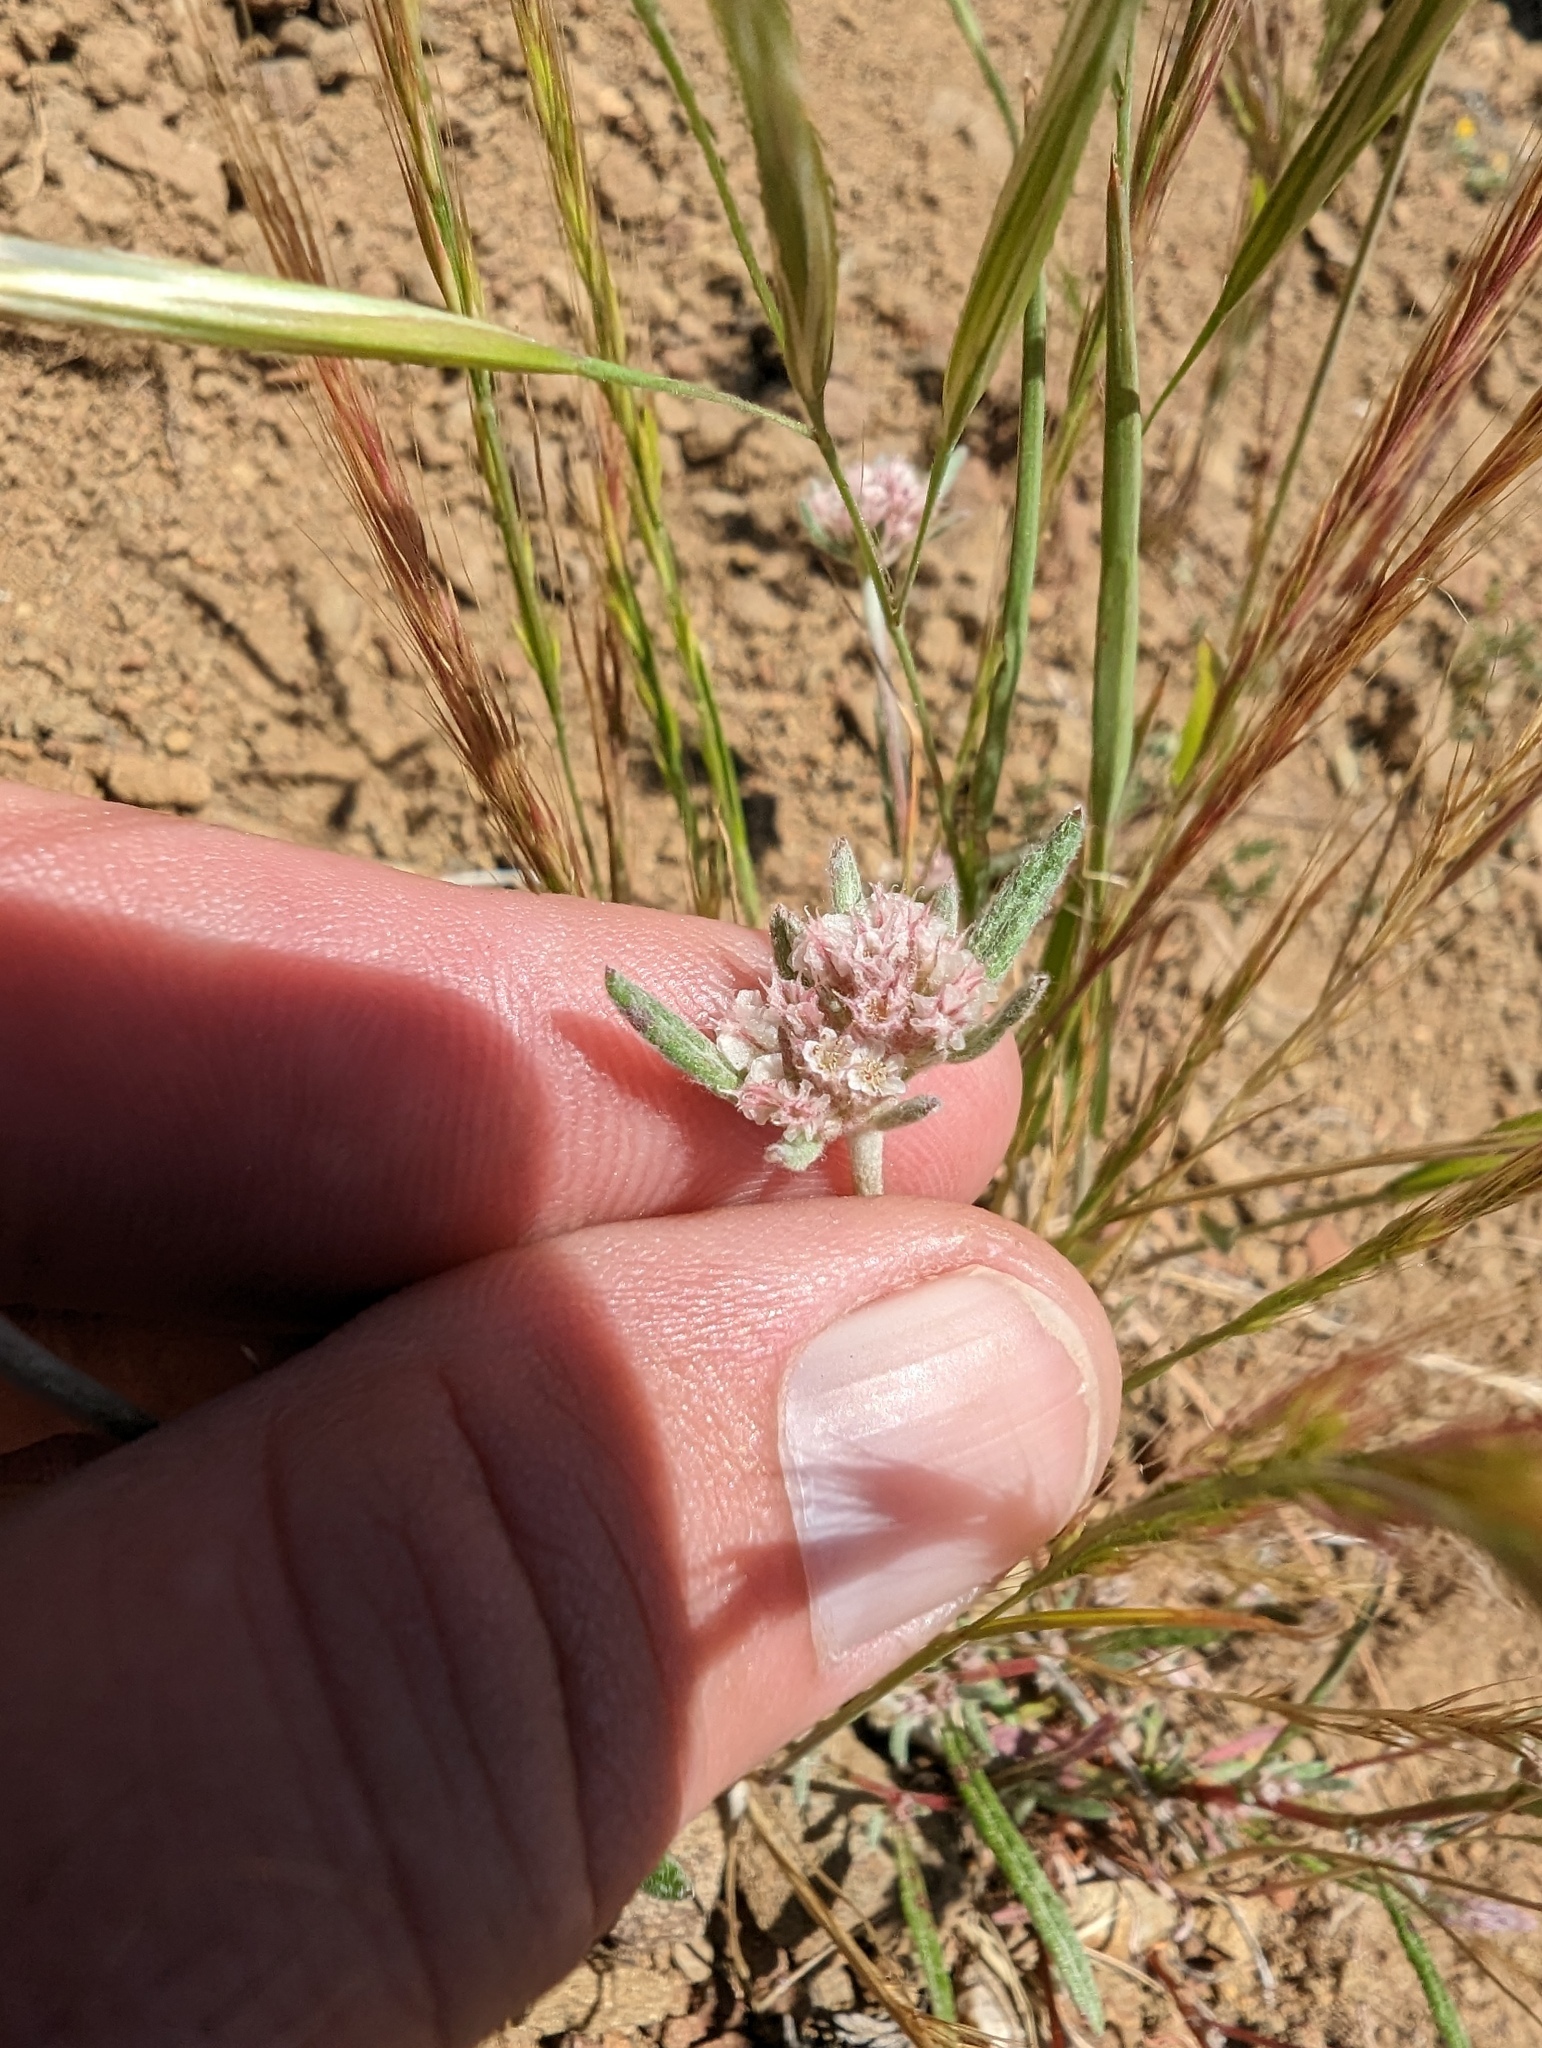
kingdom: Plantae
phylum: Tracheophyta
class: Magnoliopsida
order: Caryophyllales
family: Polygonaceae
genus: Chorizanthe
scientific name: Chorizanthe membranacea
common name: Pink spineflower
